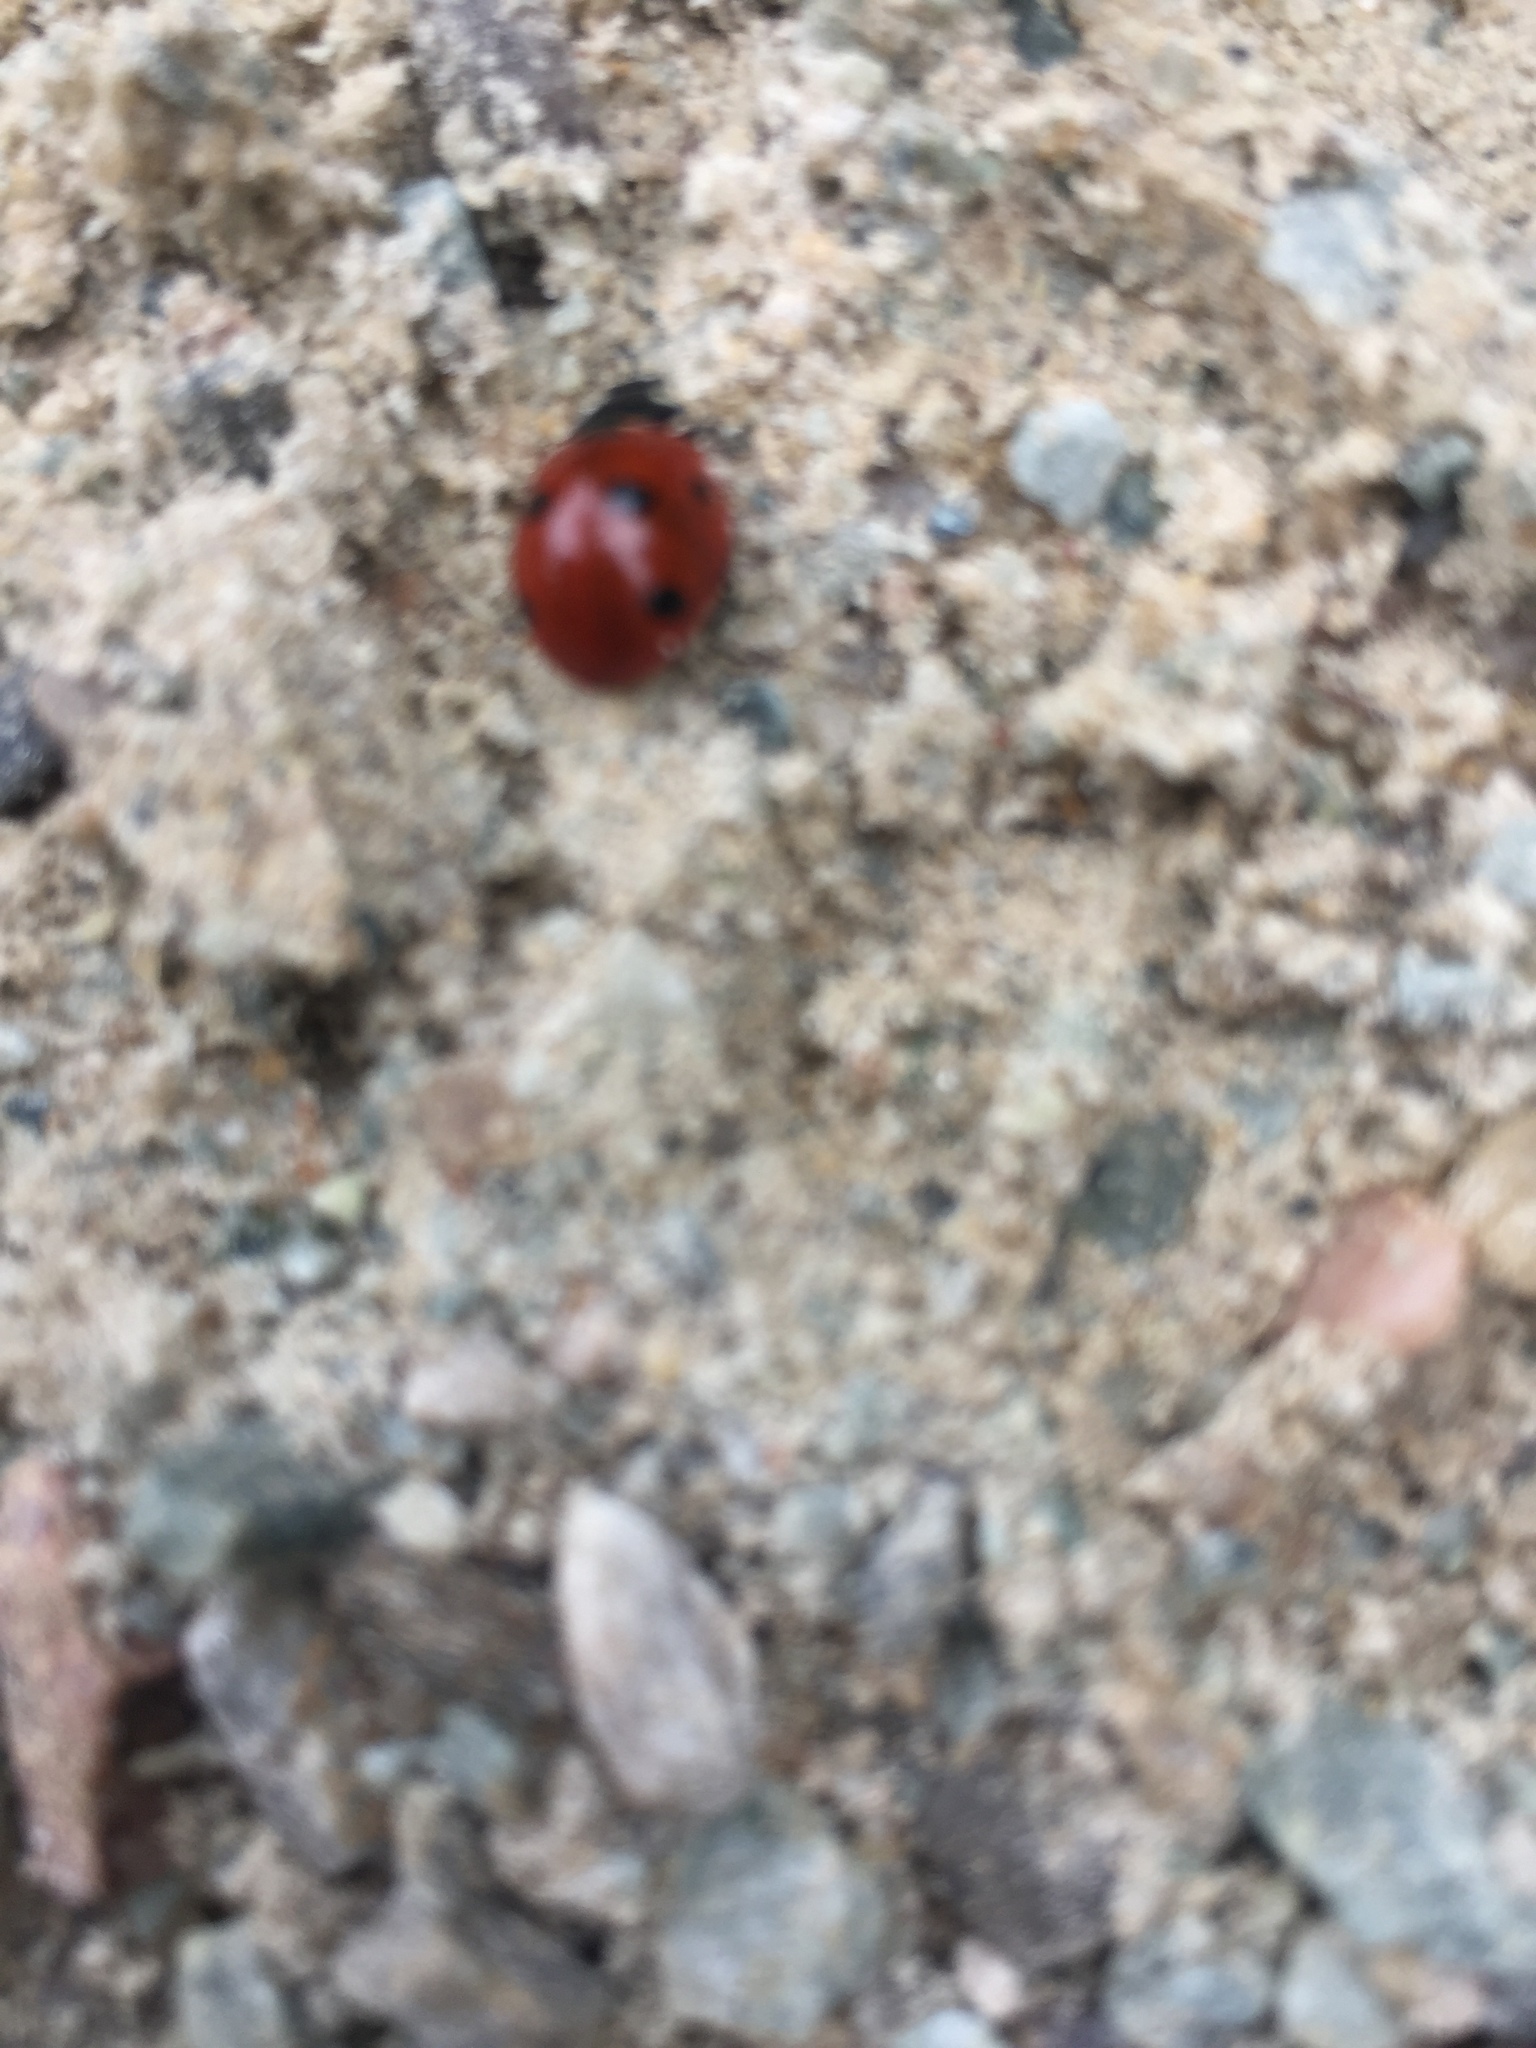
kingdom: Animalia
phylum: Arthropoda
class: Insecta
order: Coleoptera
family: Coccinellidae
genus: Coccinella
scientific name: Coccinella septempunctata
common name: Sevenspotted lady beetle
